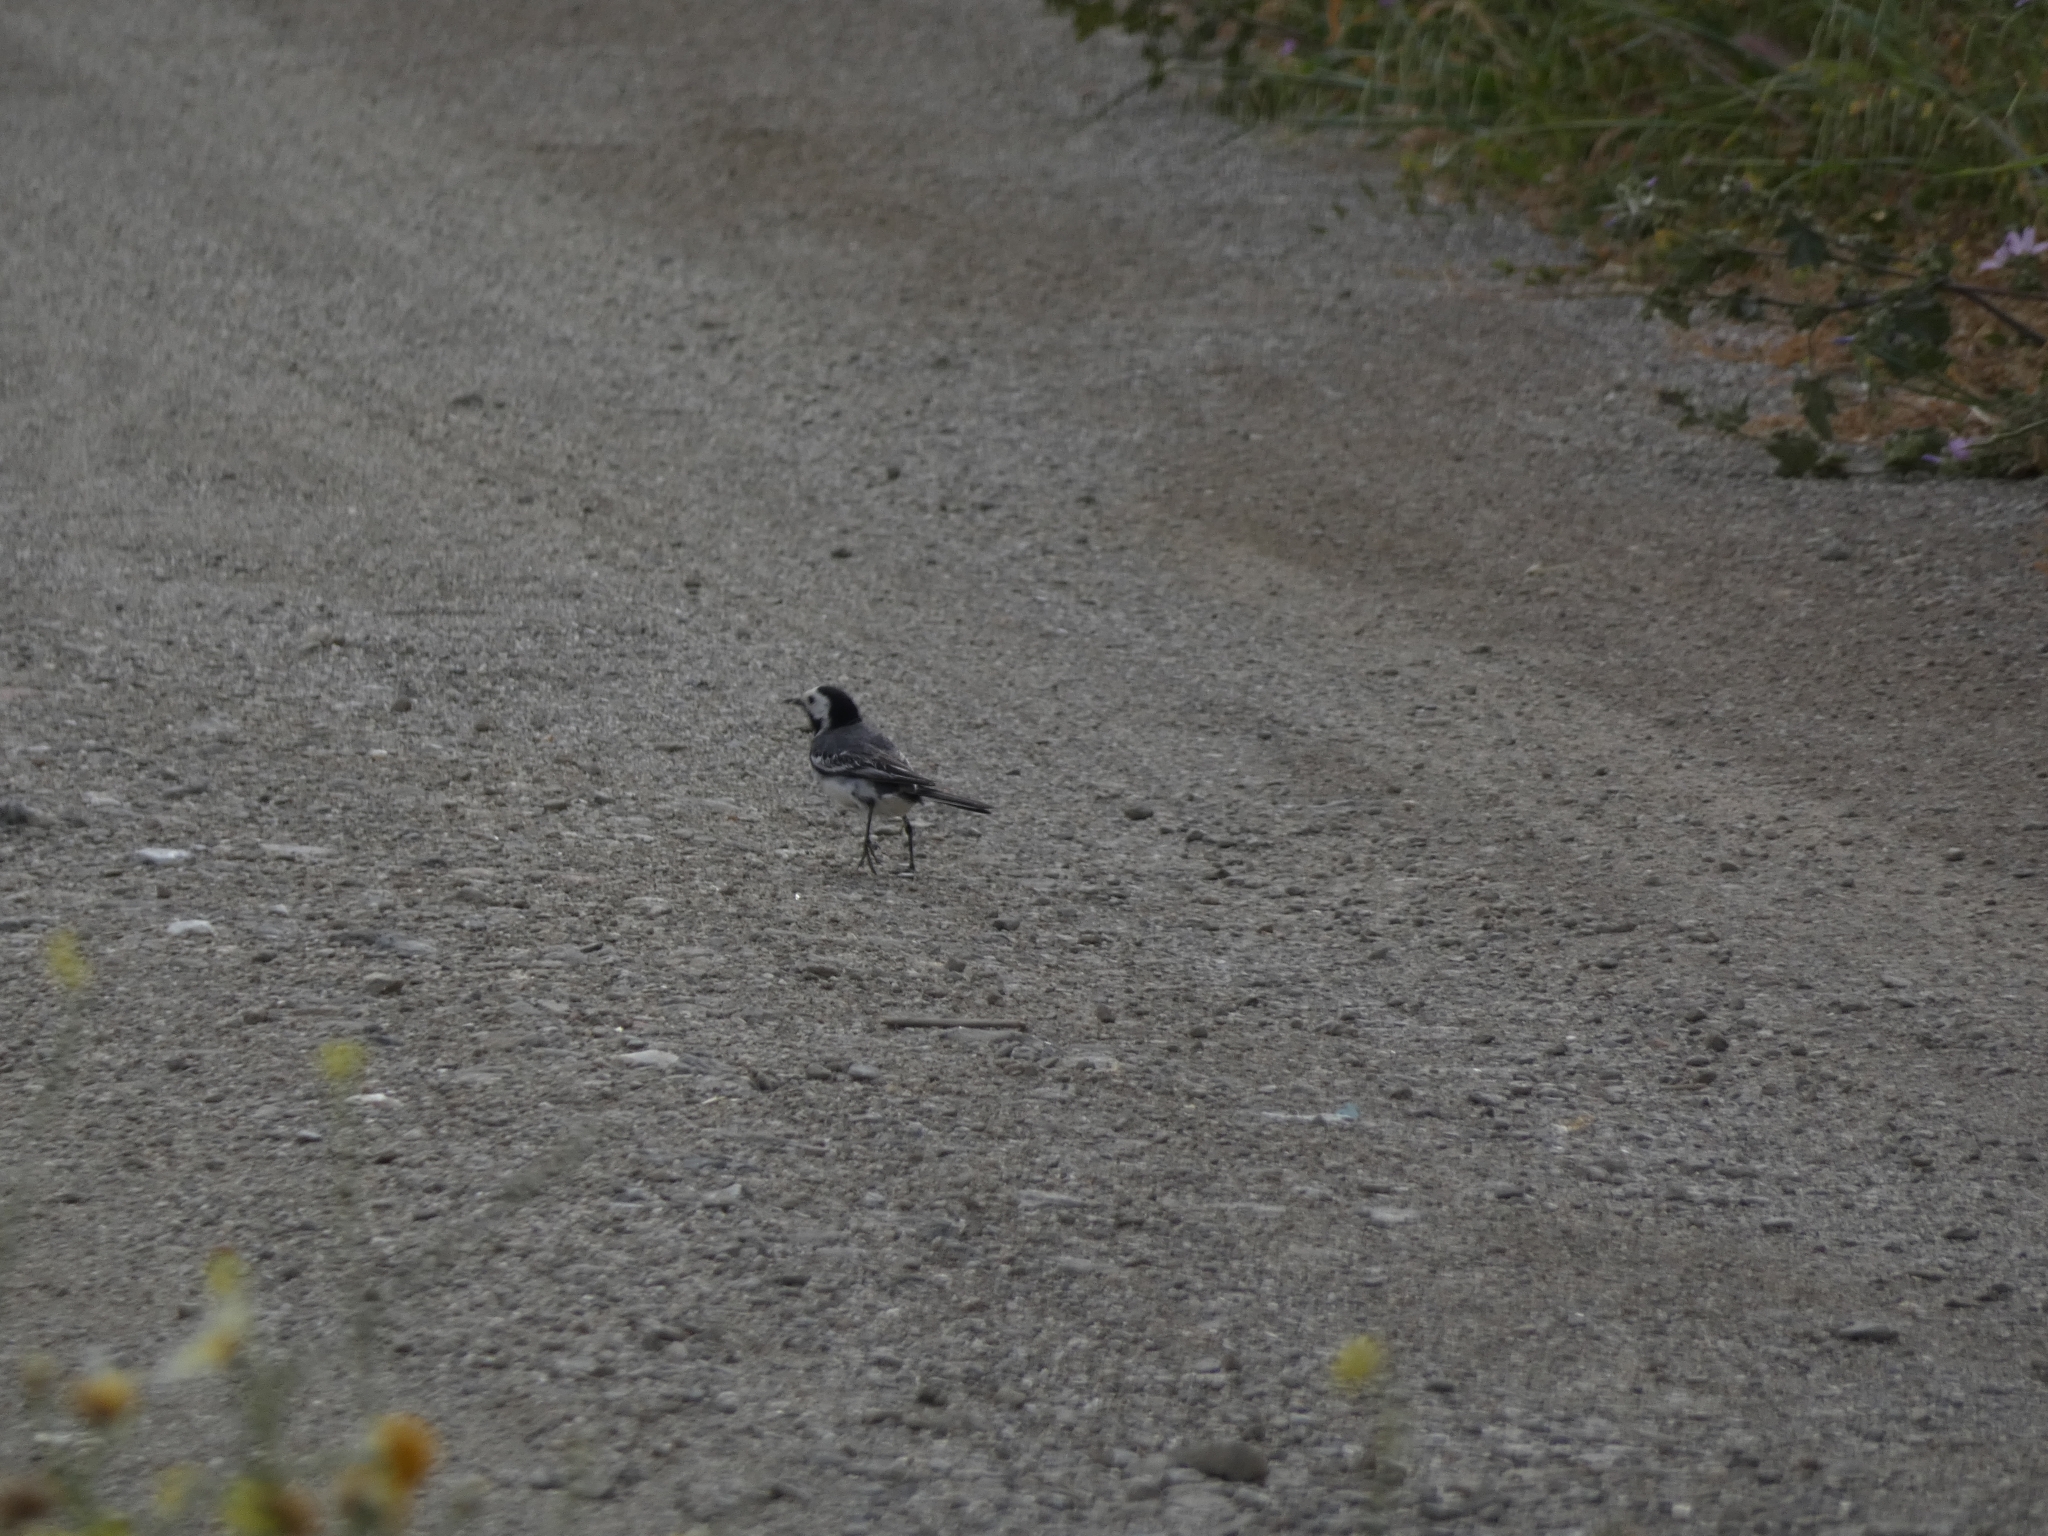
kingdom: Animalia
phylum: Chordata
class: Aves
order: Passeriformes
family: Motacillidae
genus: Motacilla
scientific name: Motacilla alba
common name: White wagtail
